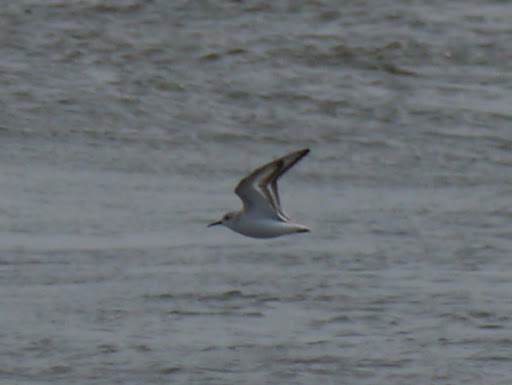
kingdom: Animalia
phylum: Chordata
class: Aves
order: Charadriiformes
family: Scolopacidae
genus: Calidris
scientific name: Calidris alba
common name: Sanderling
